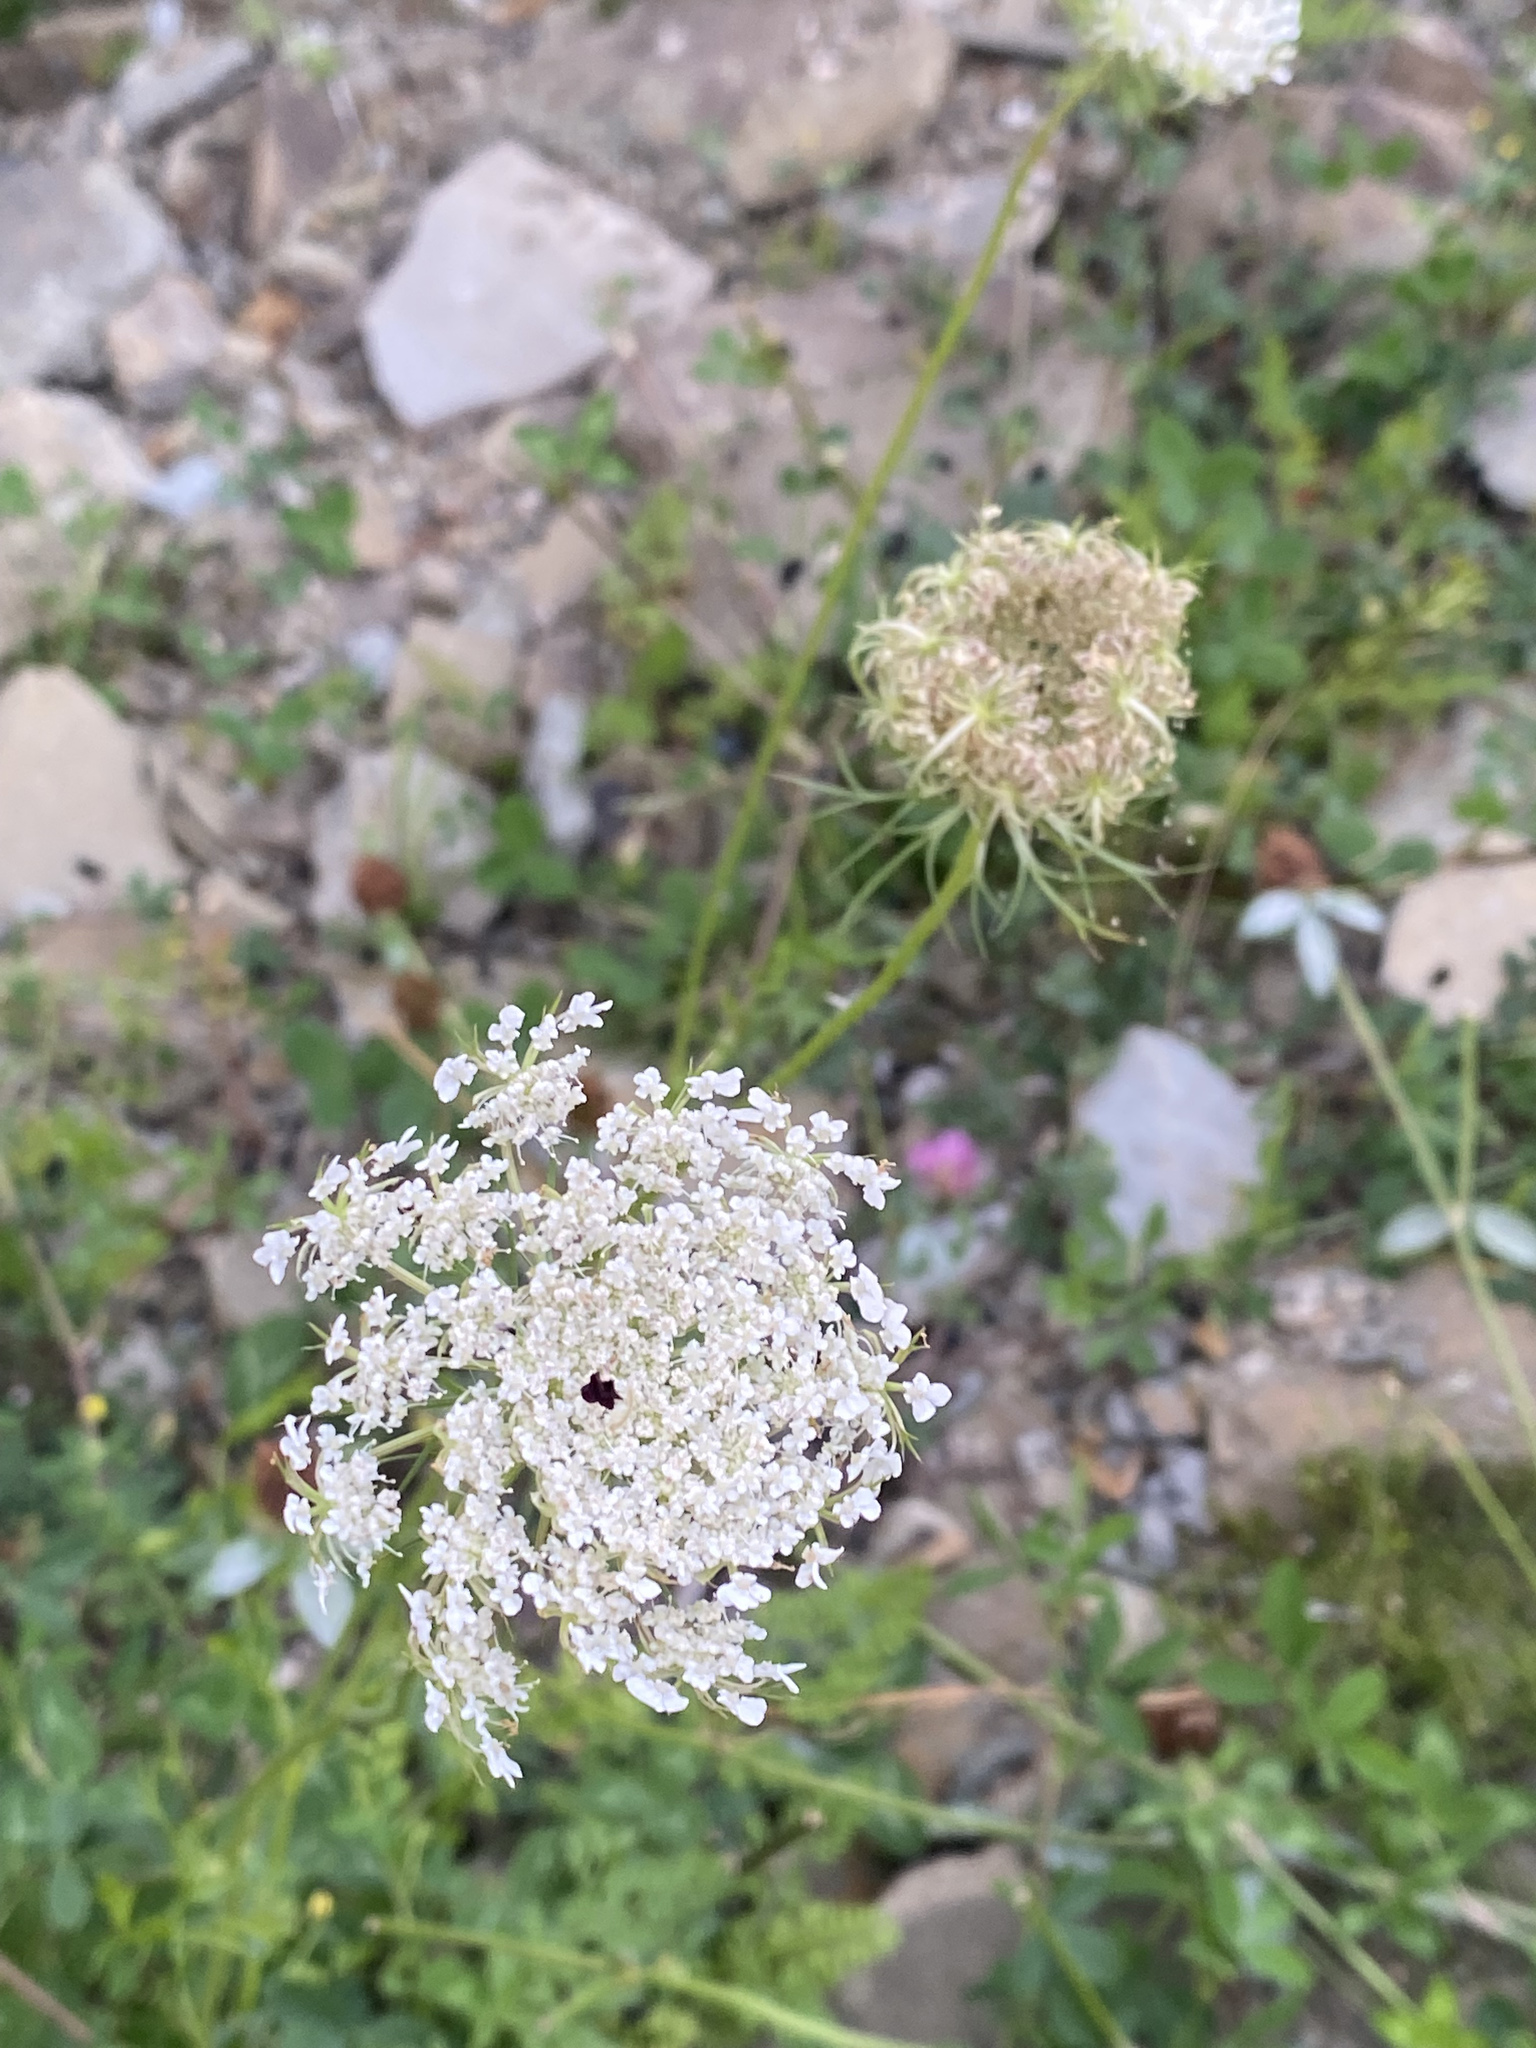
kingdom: Plantae
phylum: Tracheophyta
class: Magnoliopsida
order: Apiales
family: Apiaceae
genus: Daucus
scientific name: Daucus carota
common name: Wild carrot
